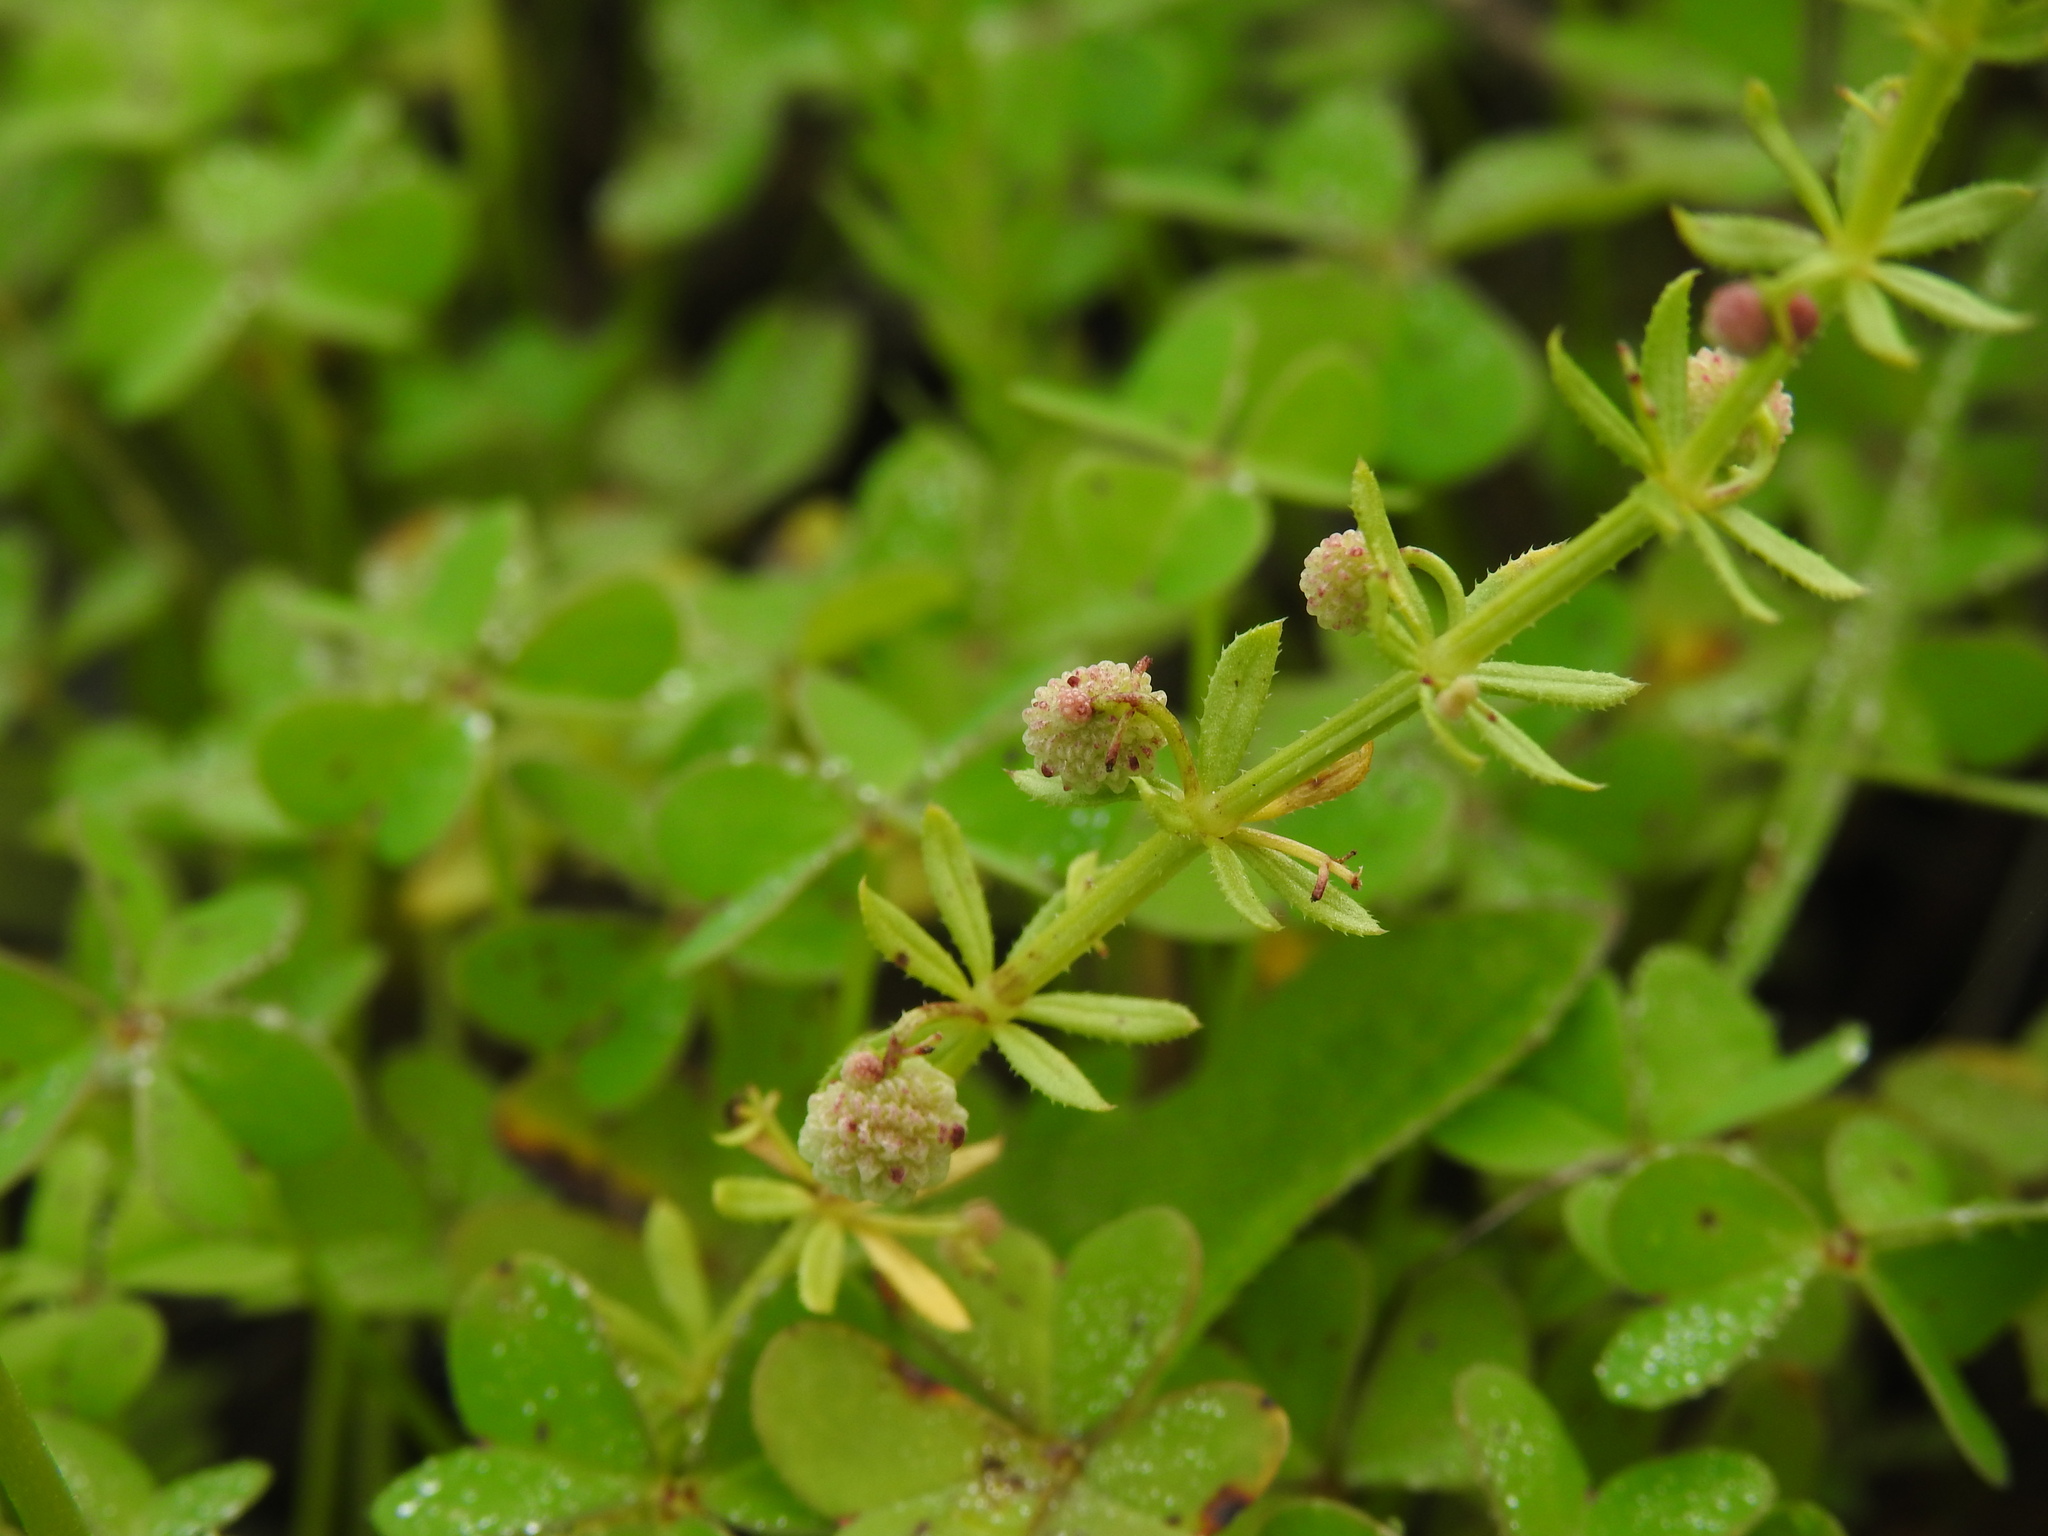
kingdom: Plantae
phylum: Tracheophyta
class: Magnoliopsida
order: Gentianales
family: Rubiaceae
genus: Galium
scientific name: Galium verrucosum
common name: Warty bedstraw
